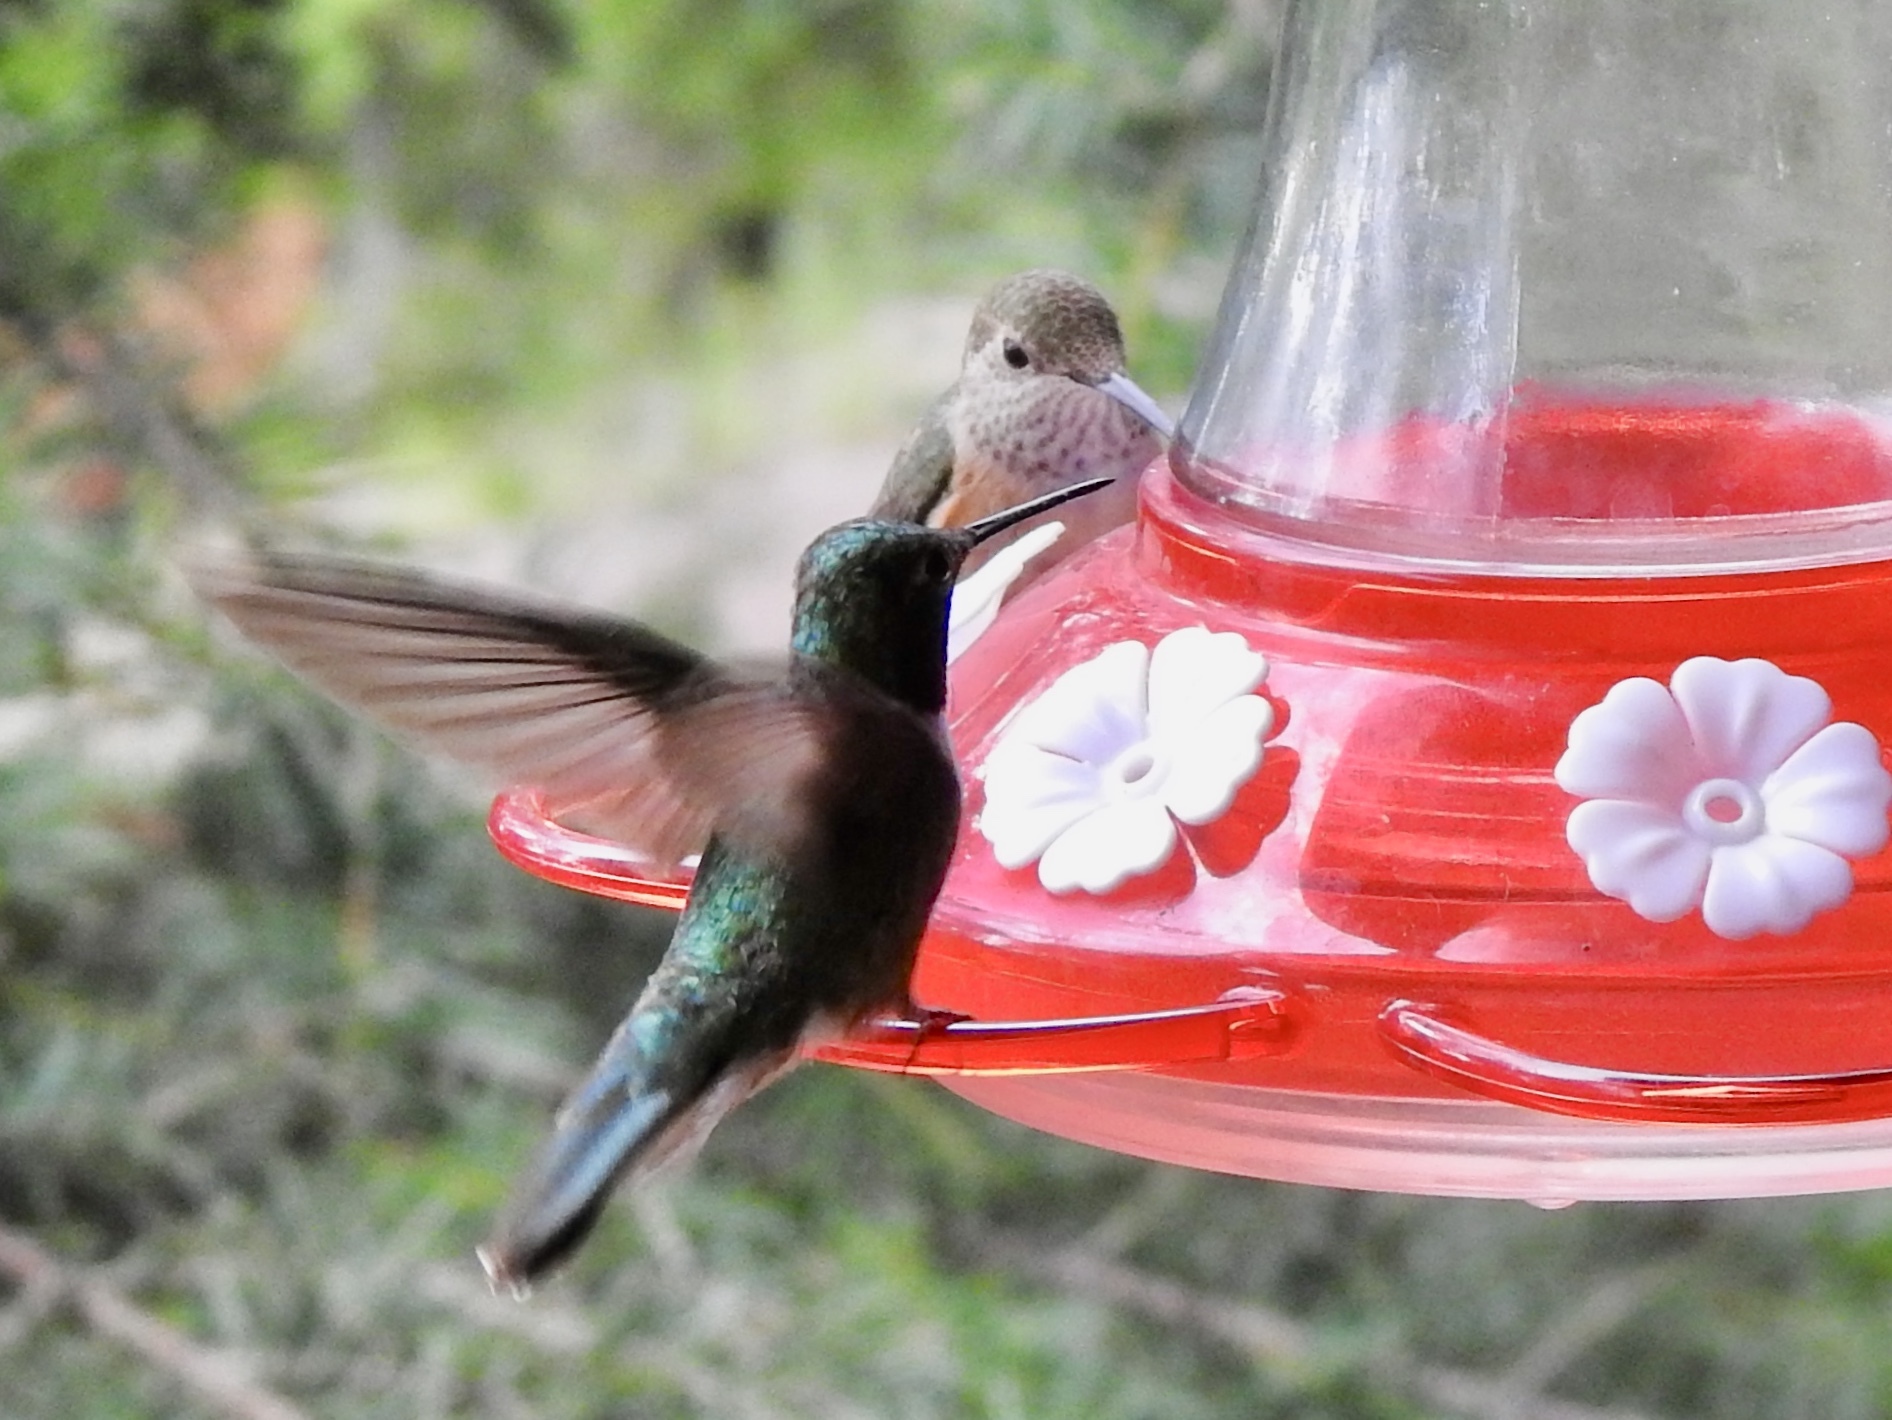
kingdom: Animalia
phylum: Chordata
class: Aves
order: Apodiformes
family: Trochilidae
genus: Selasphorus
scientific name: Selasphorus platycercus
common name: Broad-tailed hummingbird
